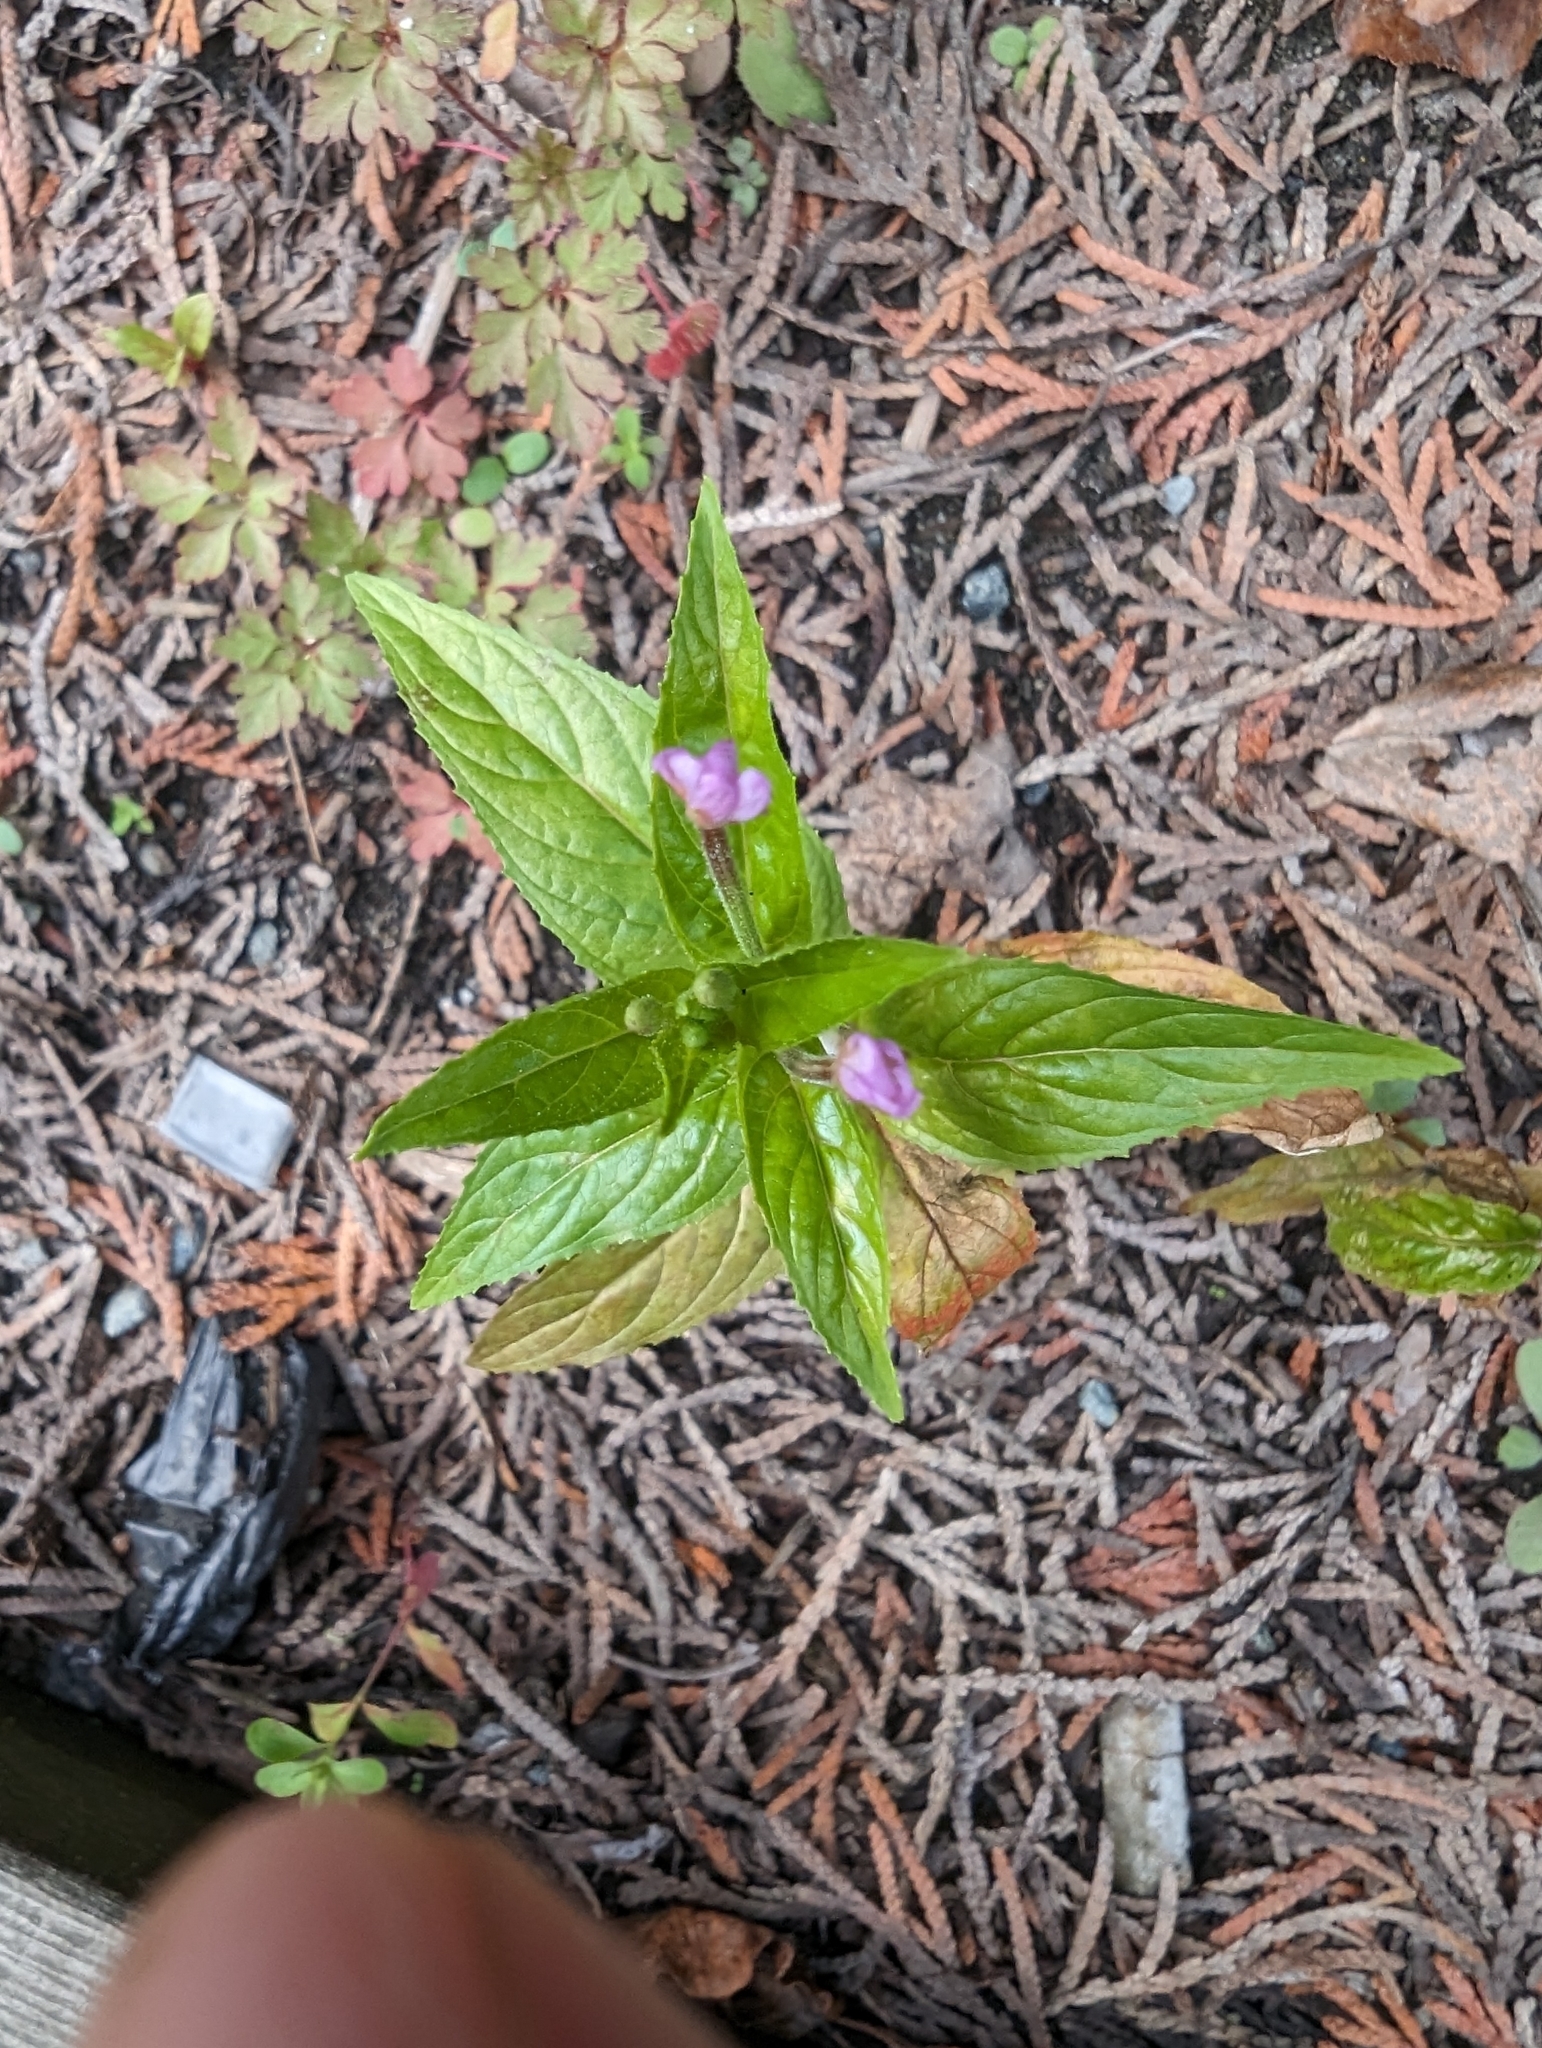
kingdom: Plantae
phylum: Tracheophyta
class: Magnoliopsida
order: Myrtales
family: Onagraceae
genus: Epilobium
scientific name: Epilobium ciliatum
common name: American willowherb
